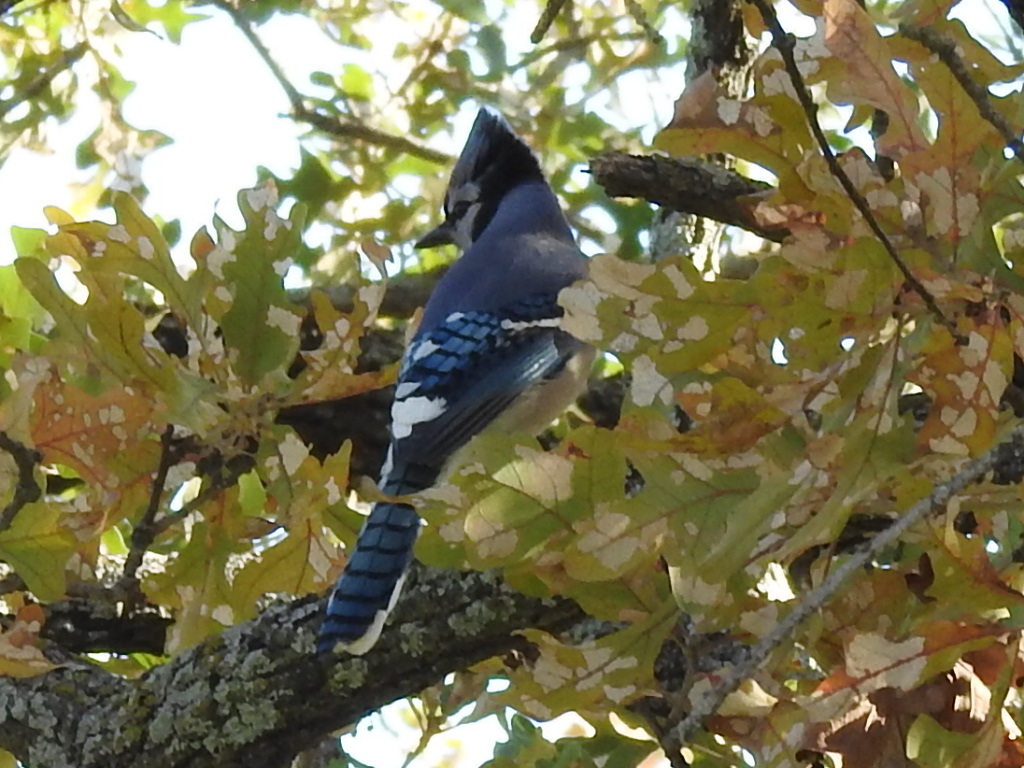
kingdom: Animalia
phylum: Chordata
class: Aves
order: Passeriformes
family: Corvidae
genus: Cyanocitta
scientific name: Cyanocitta cristata
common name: Blue jay
